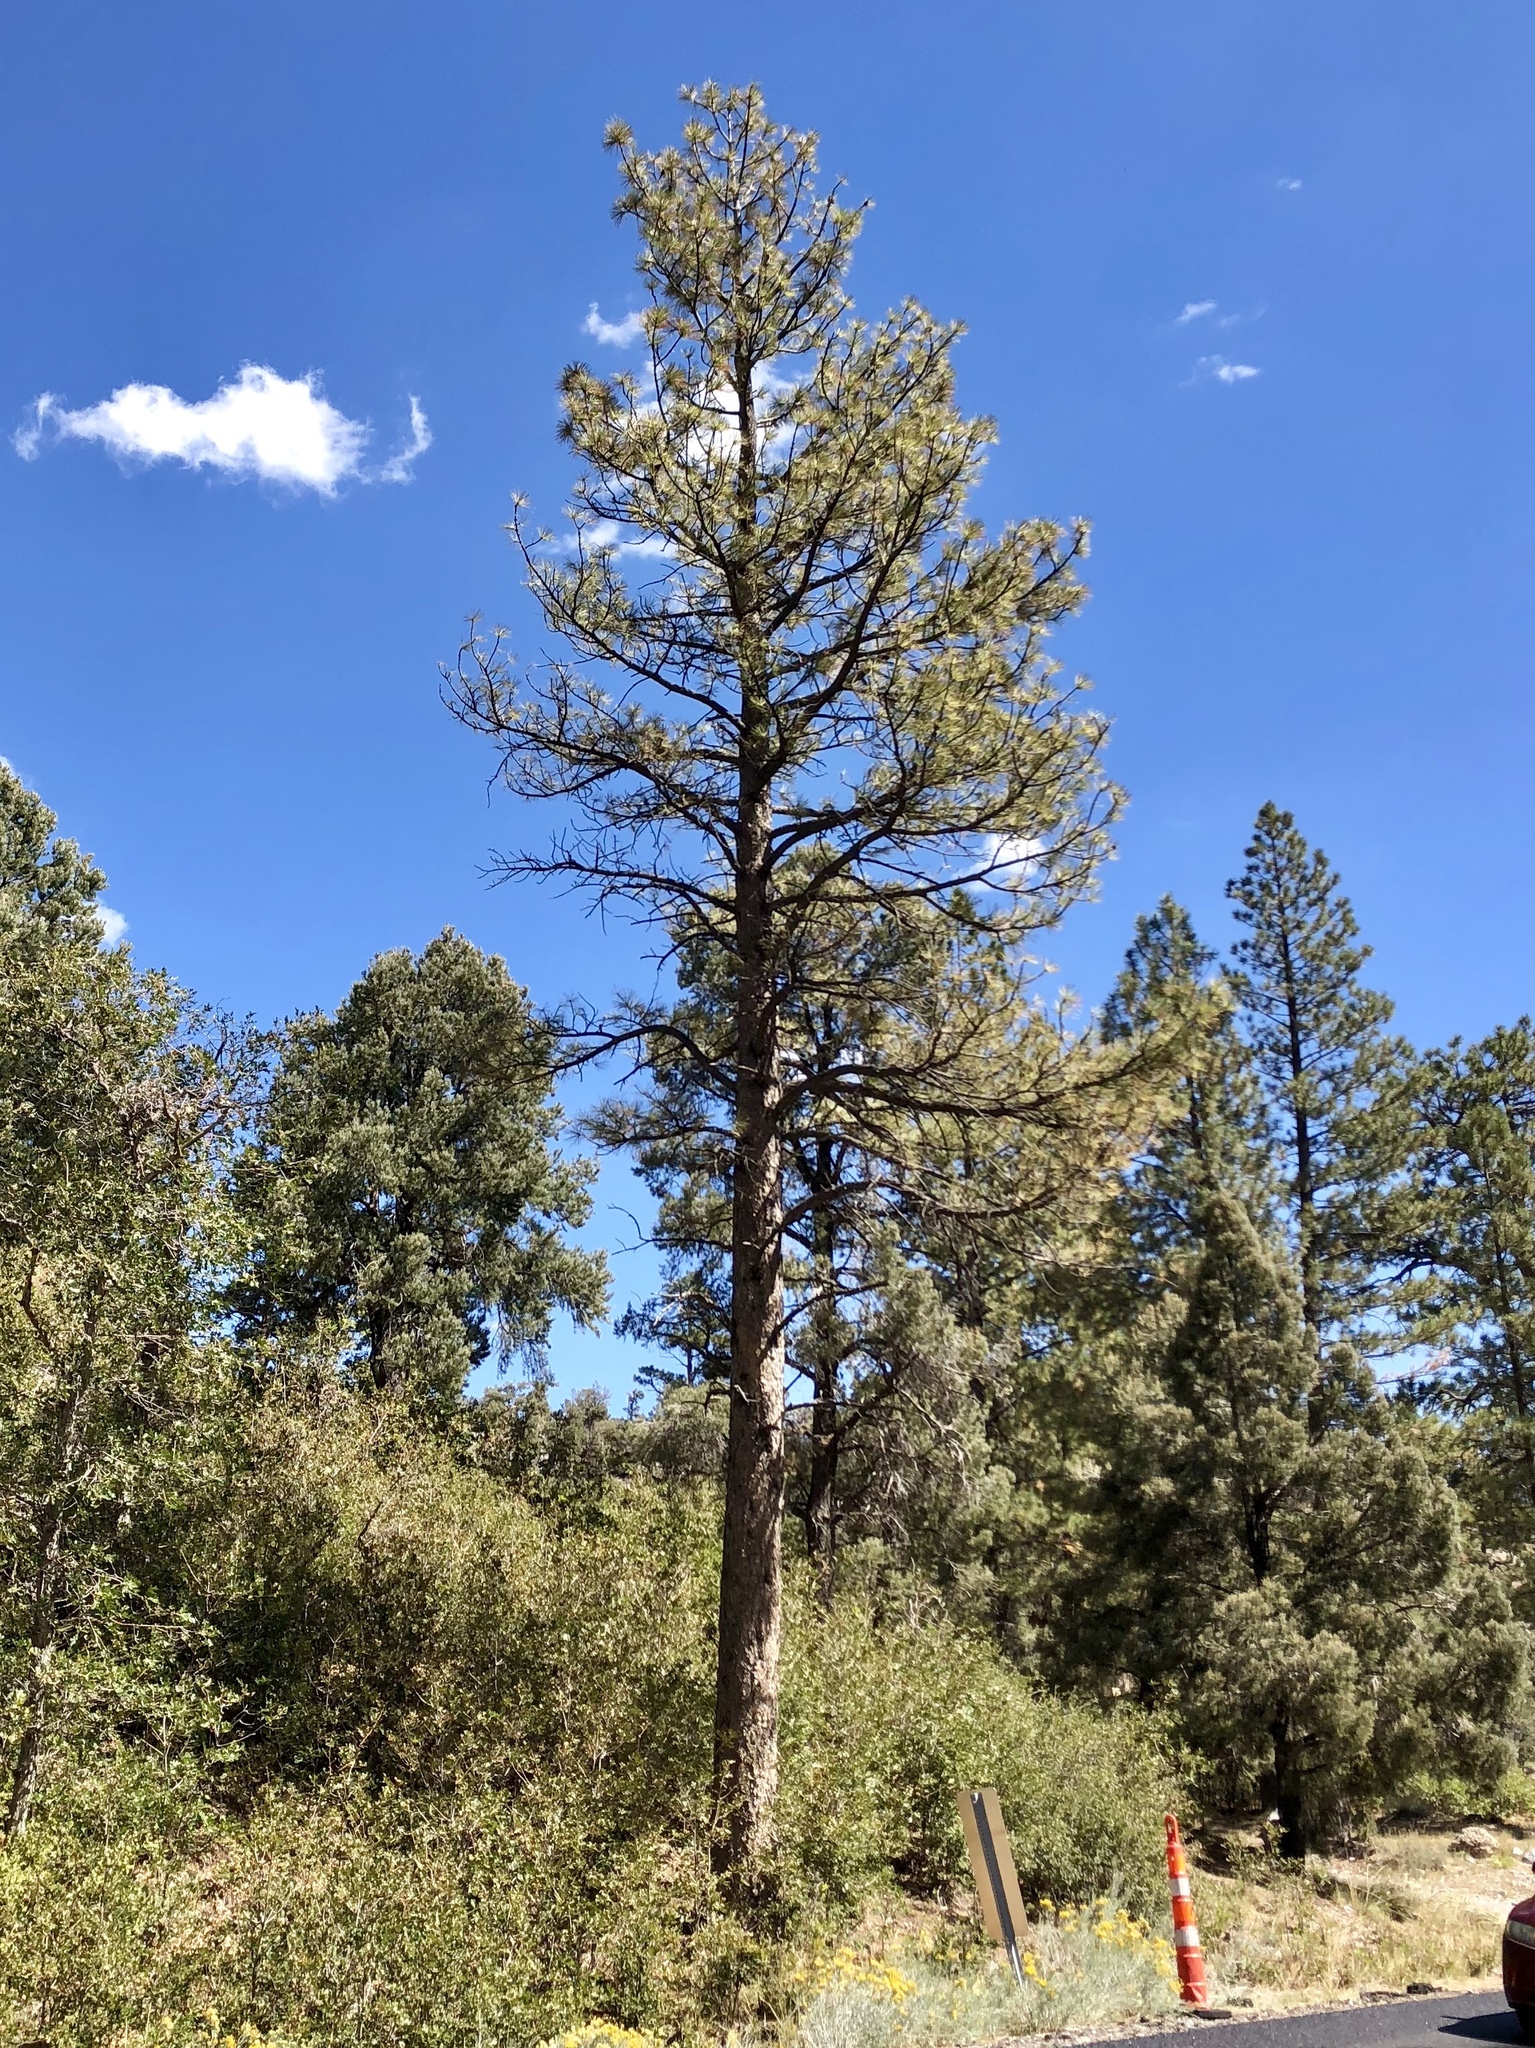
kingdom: Plantae
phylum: Tracheophyta
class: Pinopsida
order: Pinales
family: Pinaceae
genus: Pinus
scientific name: Pinus ponderosa
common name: Western yellow-pine
